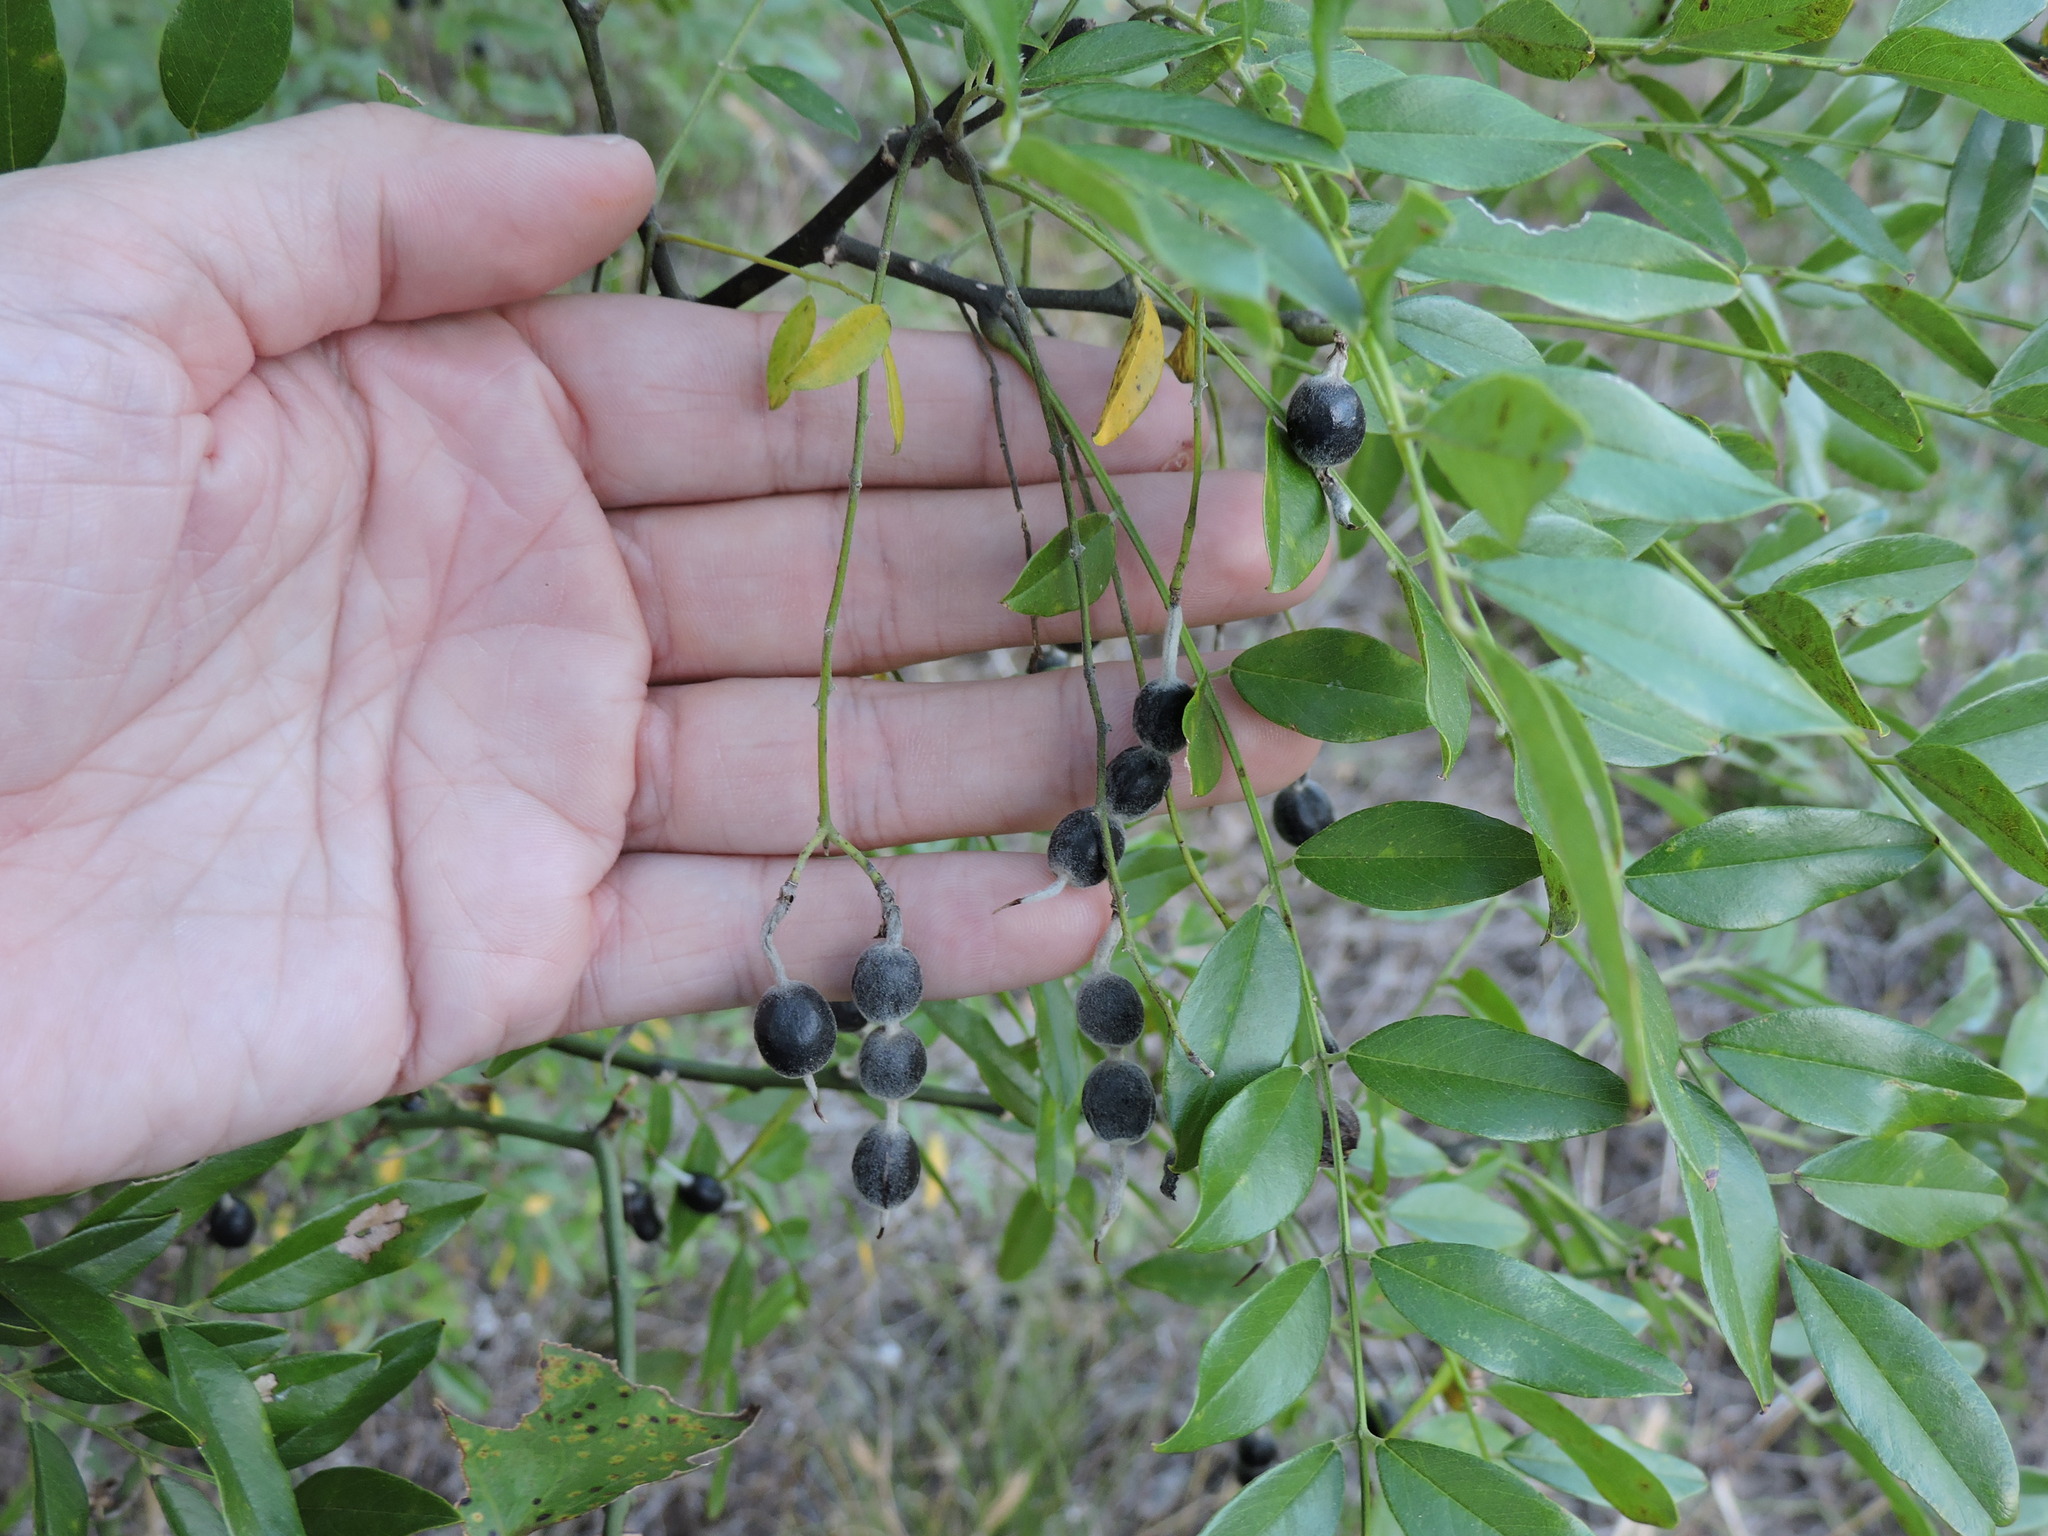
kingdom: Plantae
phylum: Tracheophyta
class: Magnoliopsida
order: Fabales
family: Fabaceae
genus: Styphnolobium
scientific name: Styphnolobium affine
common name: Texas sophora
